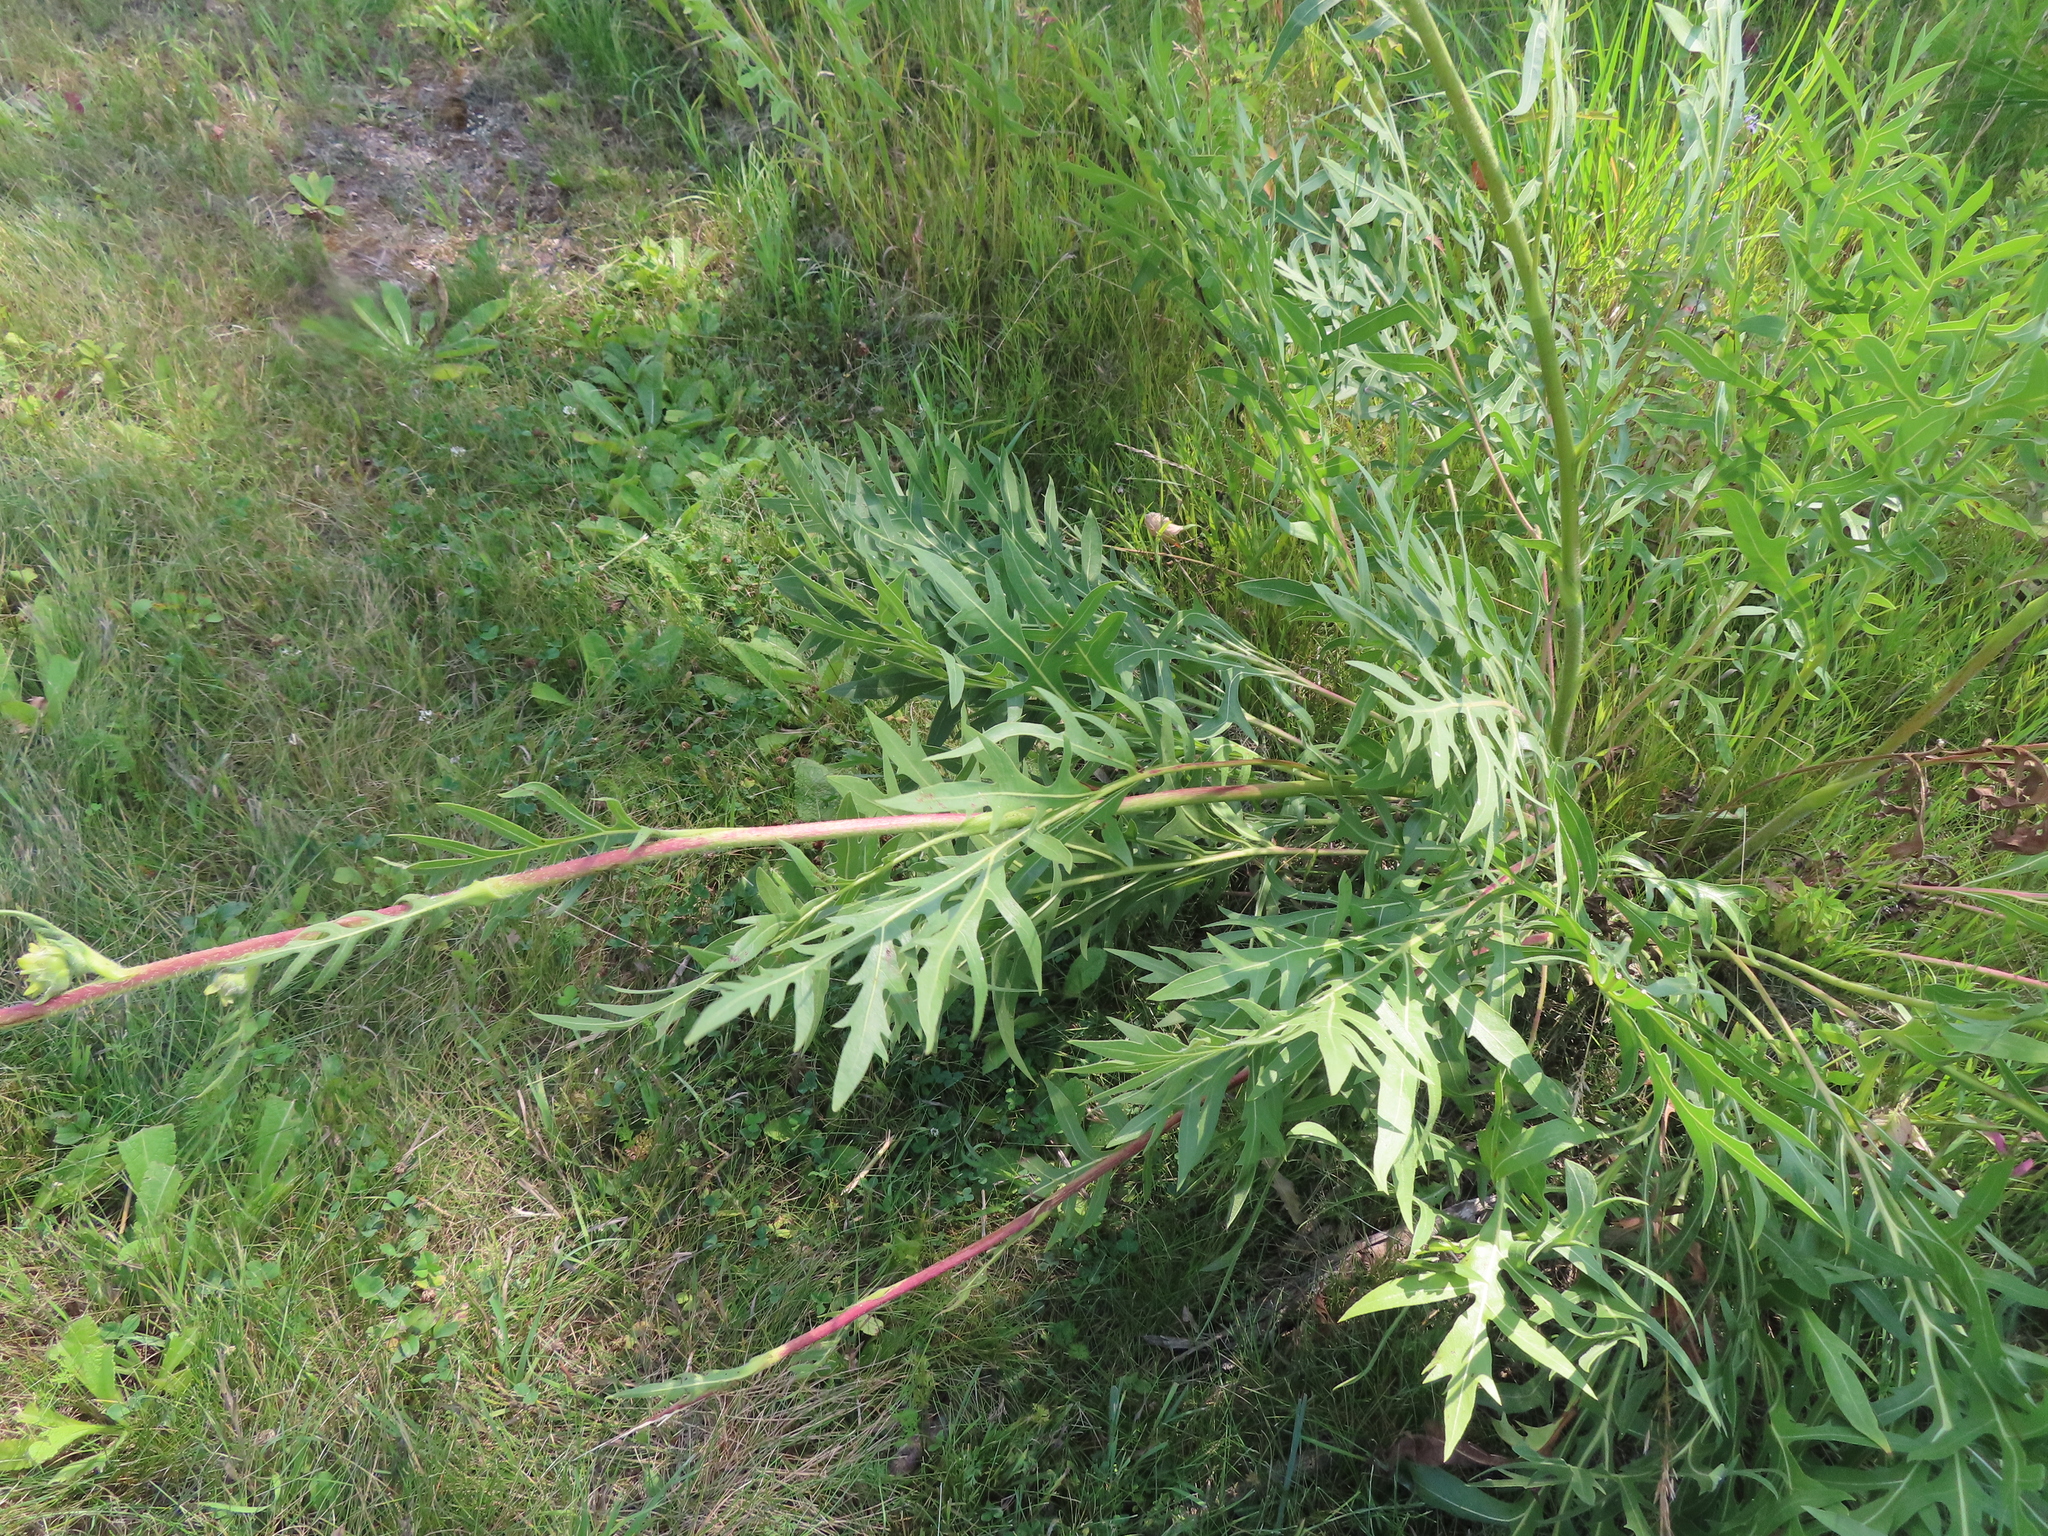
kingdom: Plantae
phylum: Tracheophyta
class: Magnoliopsida
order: Asterales
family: Asteraceae
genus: Silphium
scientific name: Silphium laciniatum
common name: Polarplant
